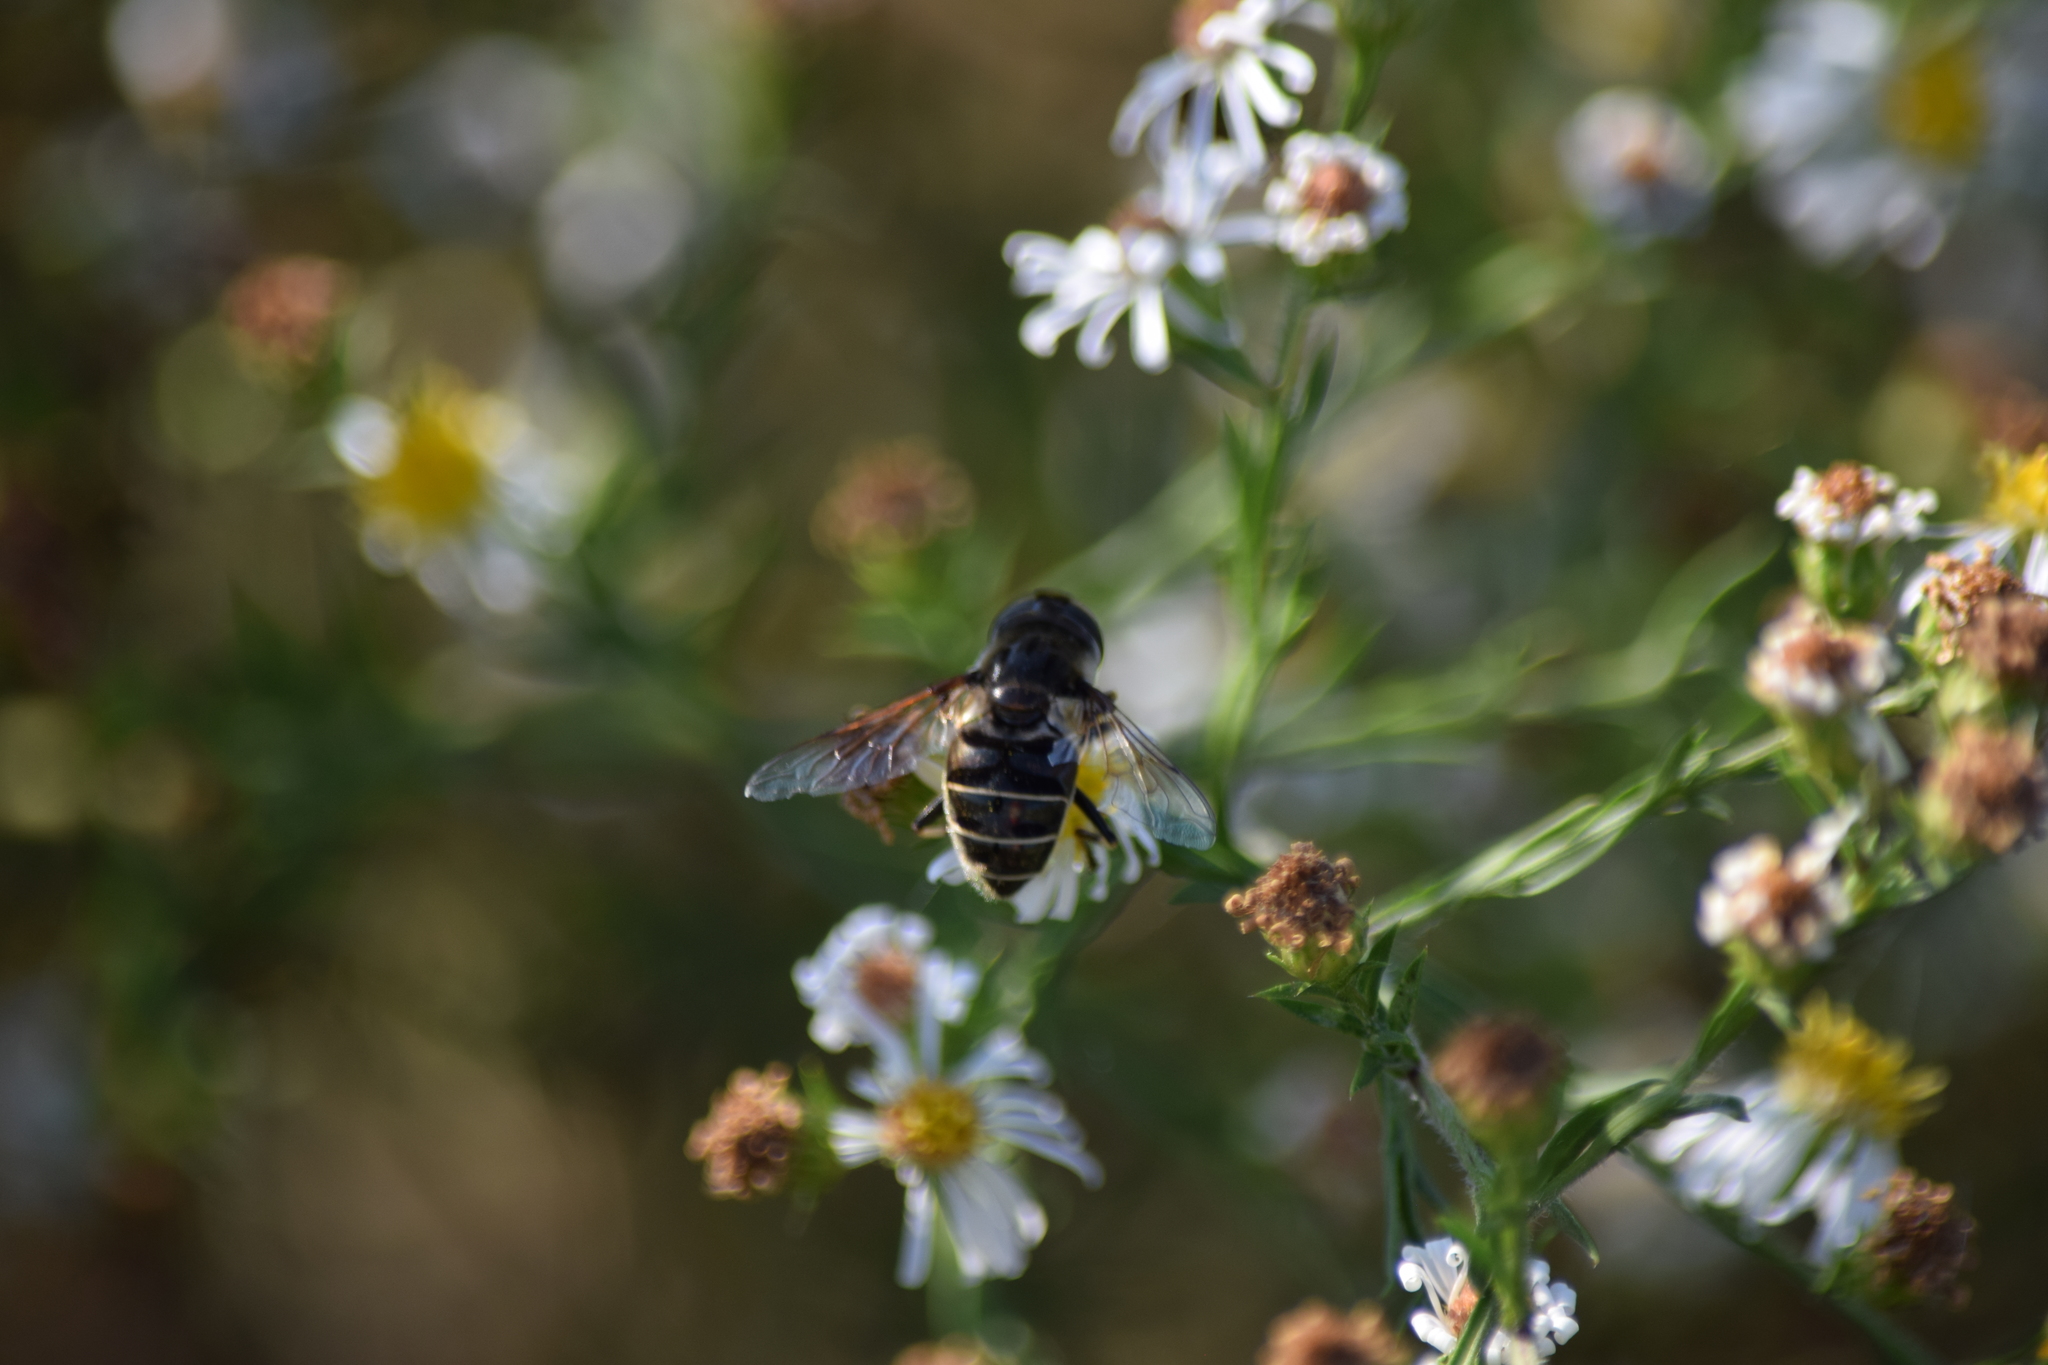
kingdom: Animalia
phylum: Arthropoda
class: Insecta
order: Diptera
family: Syrphidae
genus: Eristalis
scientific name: Eristalis dimidiata
